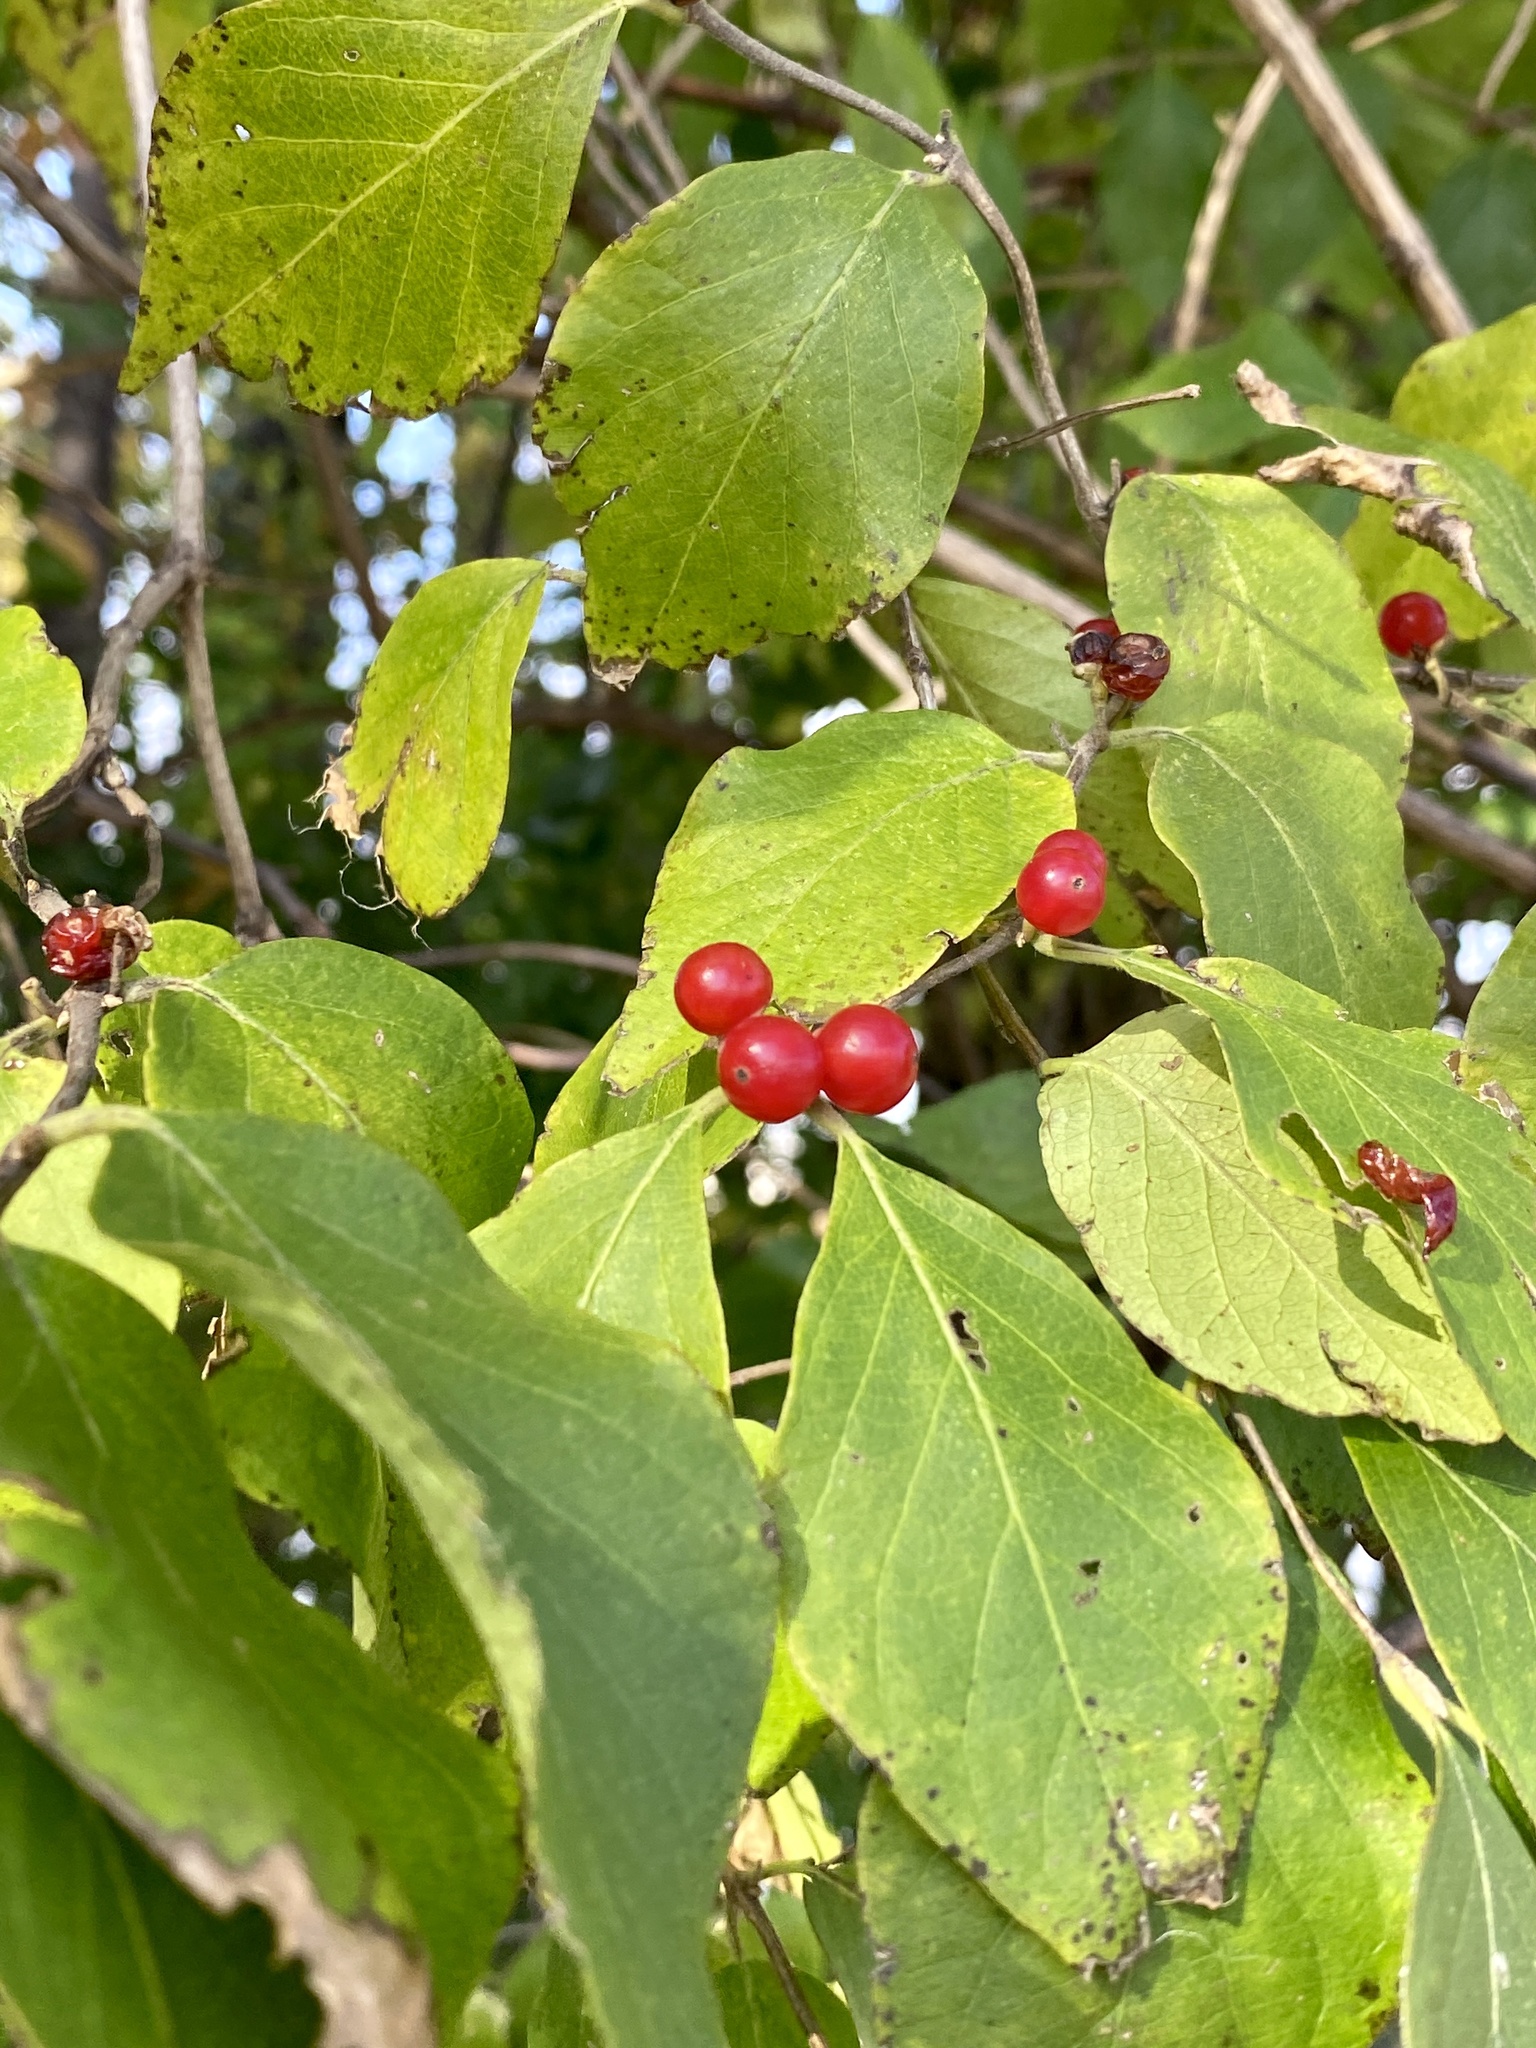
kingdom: Plantae
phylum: Tracheophyta
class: Magnoliopsida
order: Dipsacales
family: Caprifoliaceae
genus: Lonicera
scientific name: Lonicera maackii
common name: Amur honeysuckle
